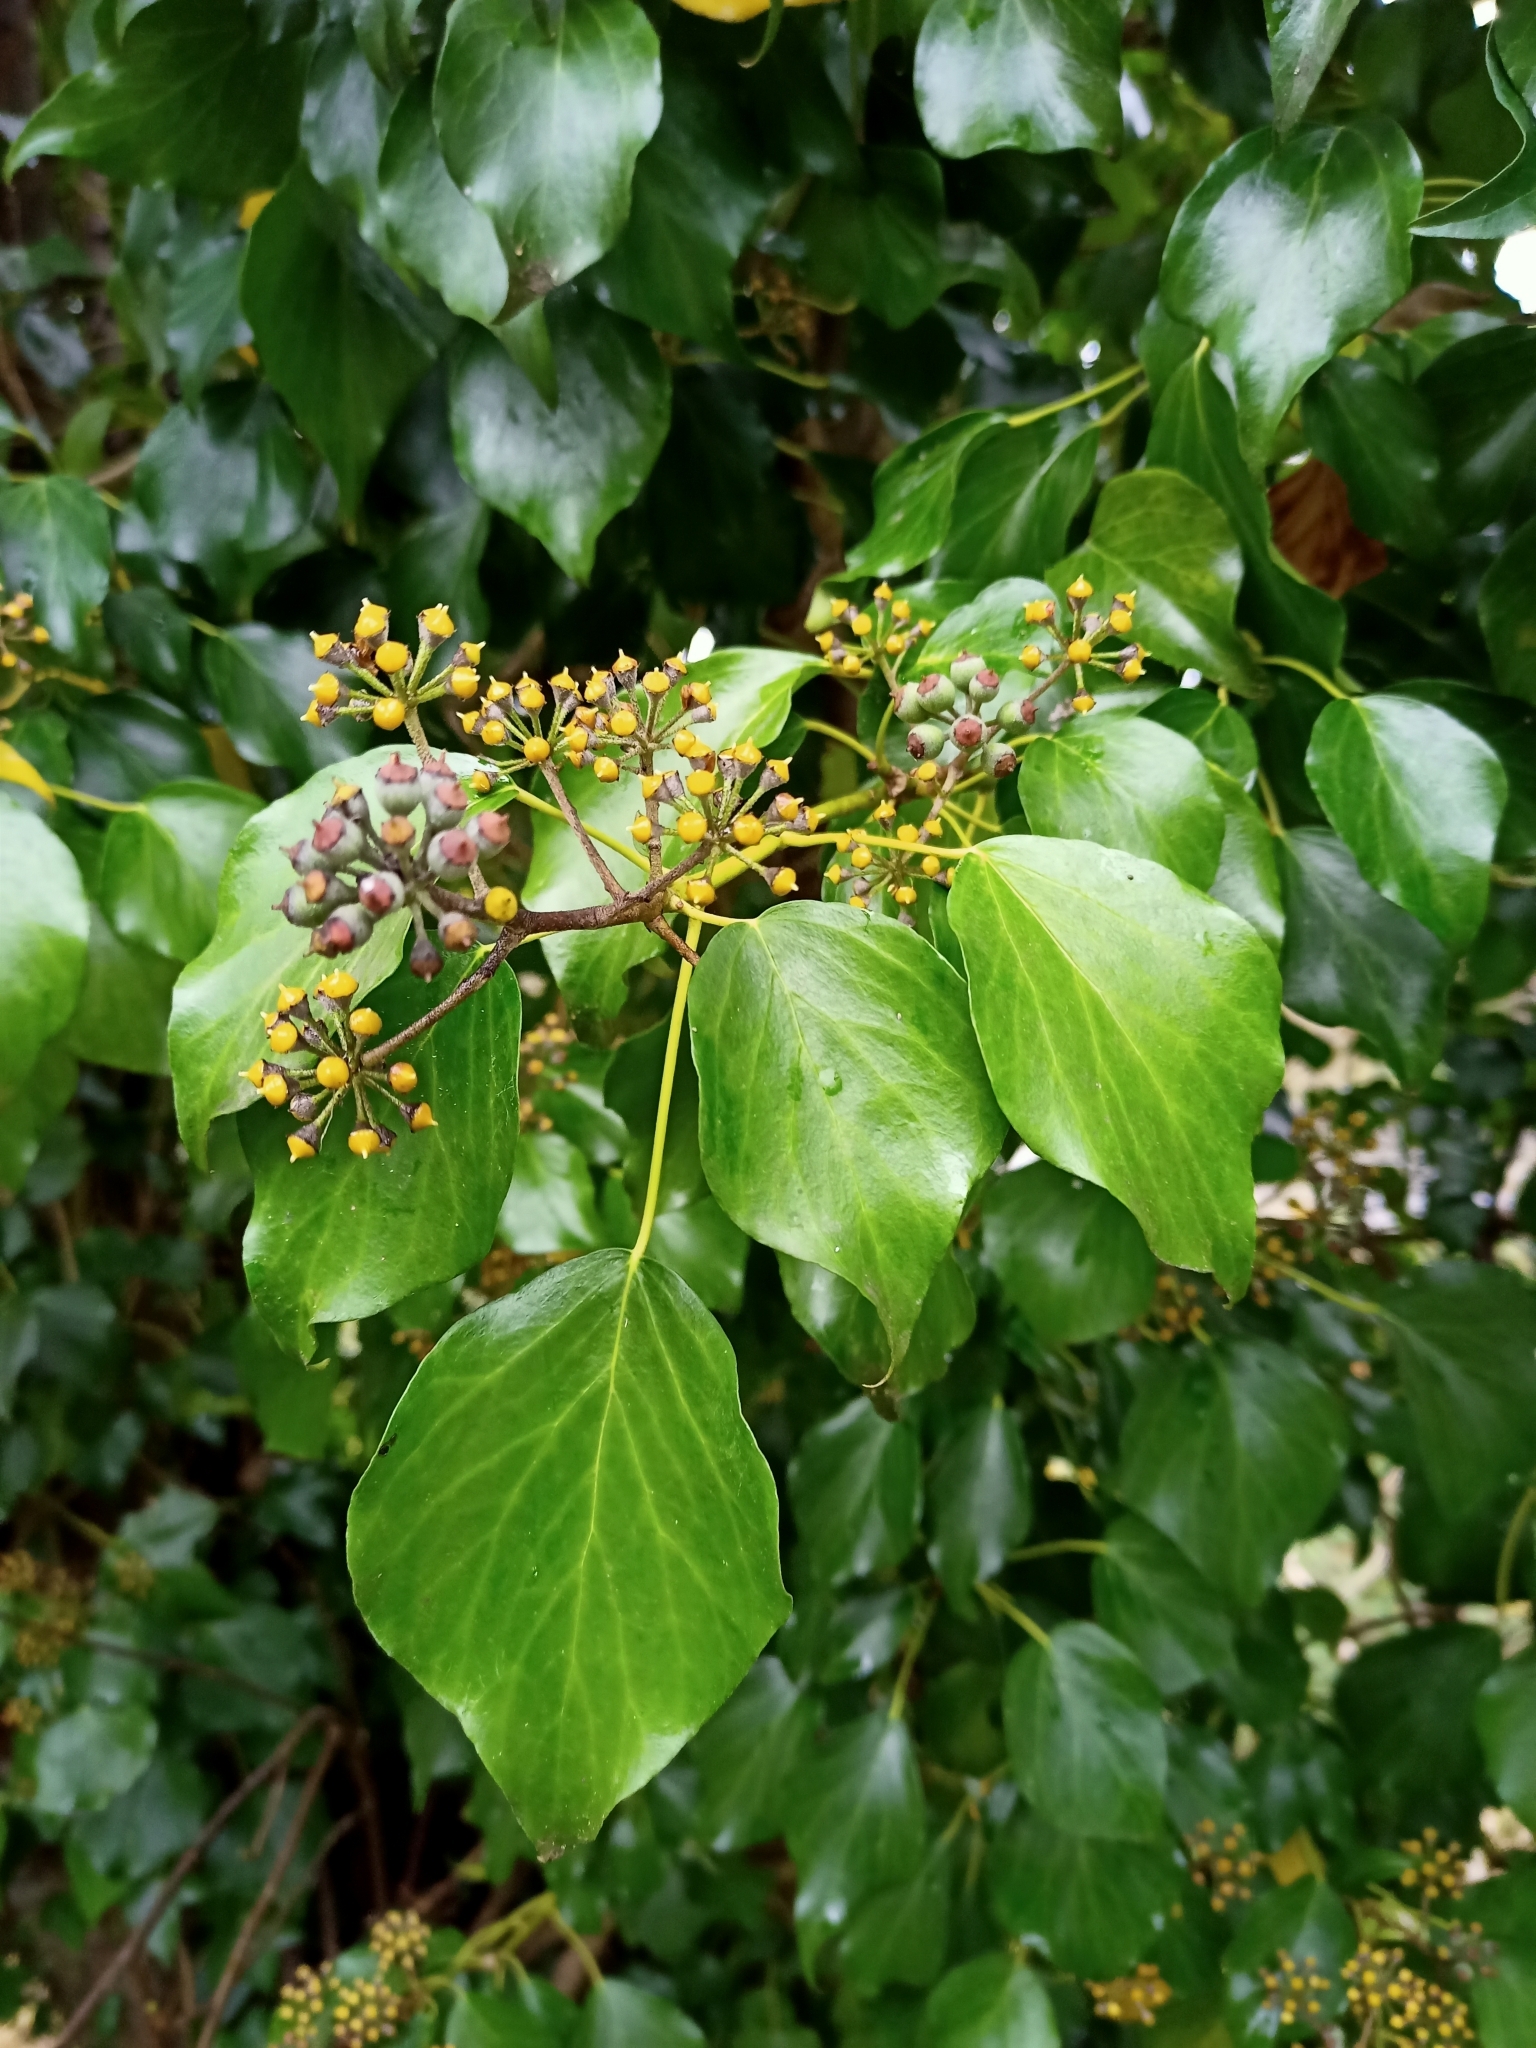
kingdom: Plantae
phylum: Tracheophyta
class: Magnoliopsida
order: Apiales
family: Araliaceae
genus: Hedera
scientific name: Hedera helix
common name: Ivy
